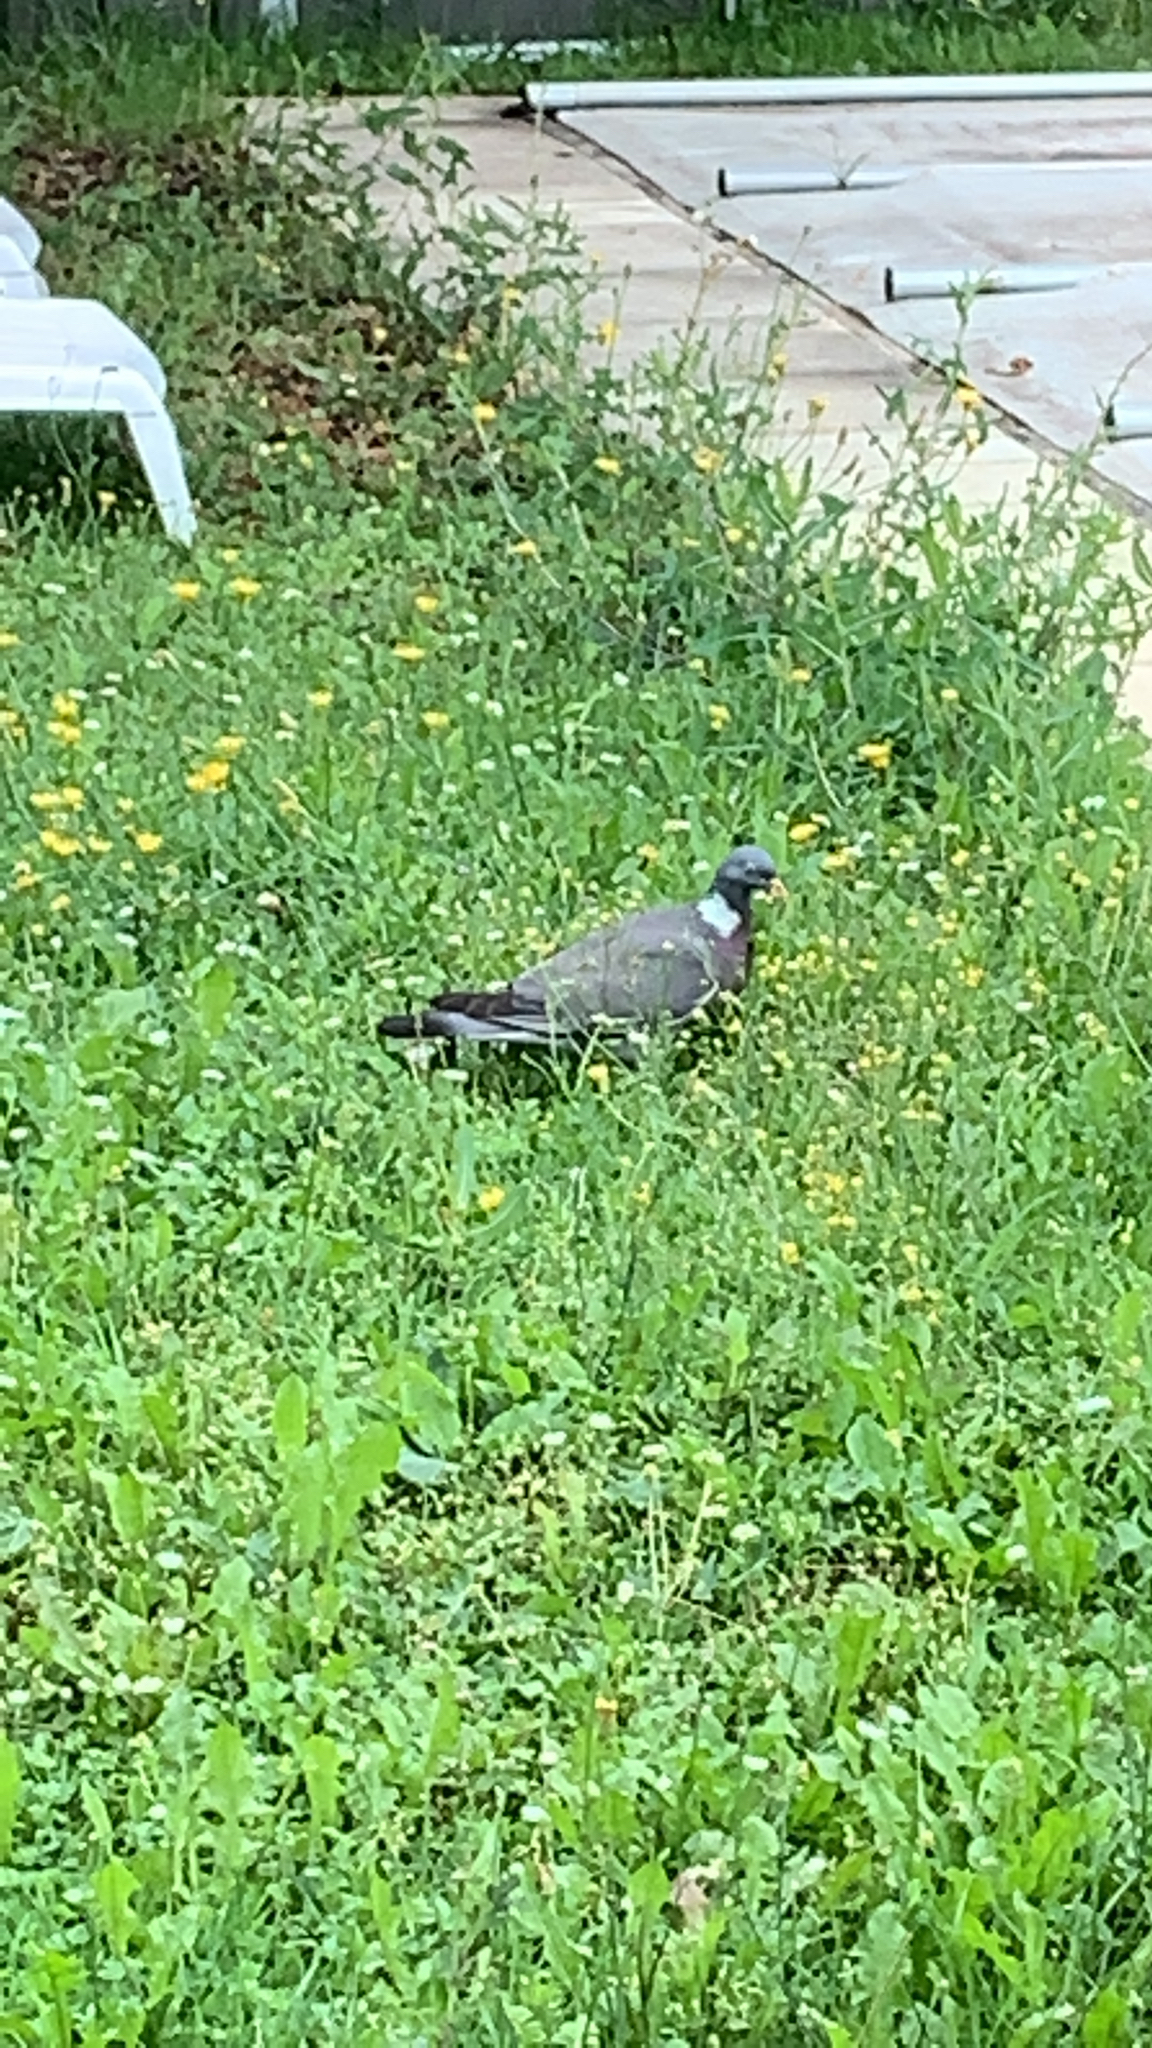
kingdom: Animalia
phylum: Chordata
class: Aves
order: Columbiformes
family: Columbidae
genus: Columba
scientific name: Columba palumbus
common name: Common wood pigeon
